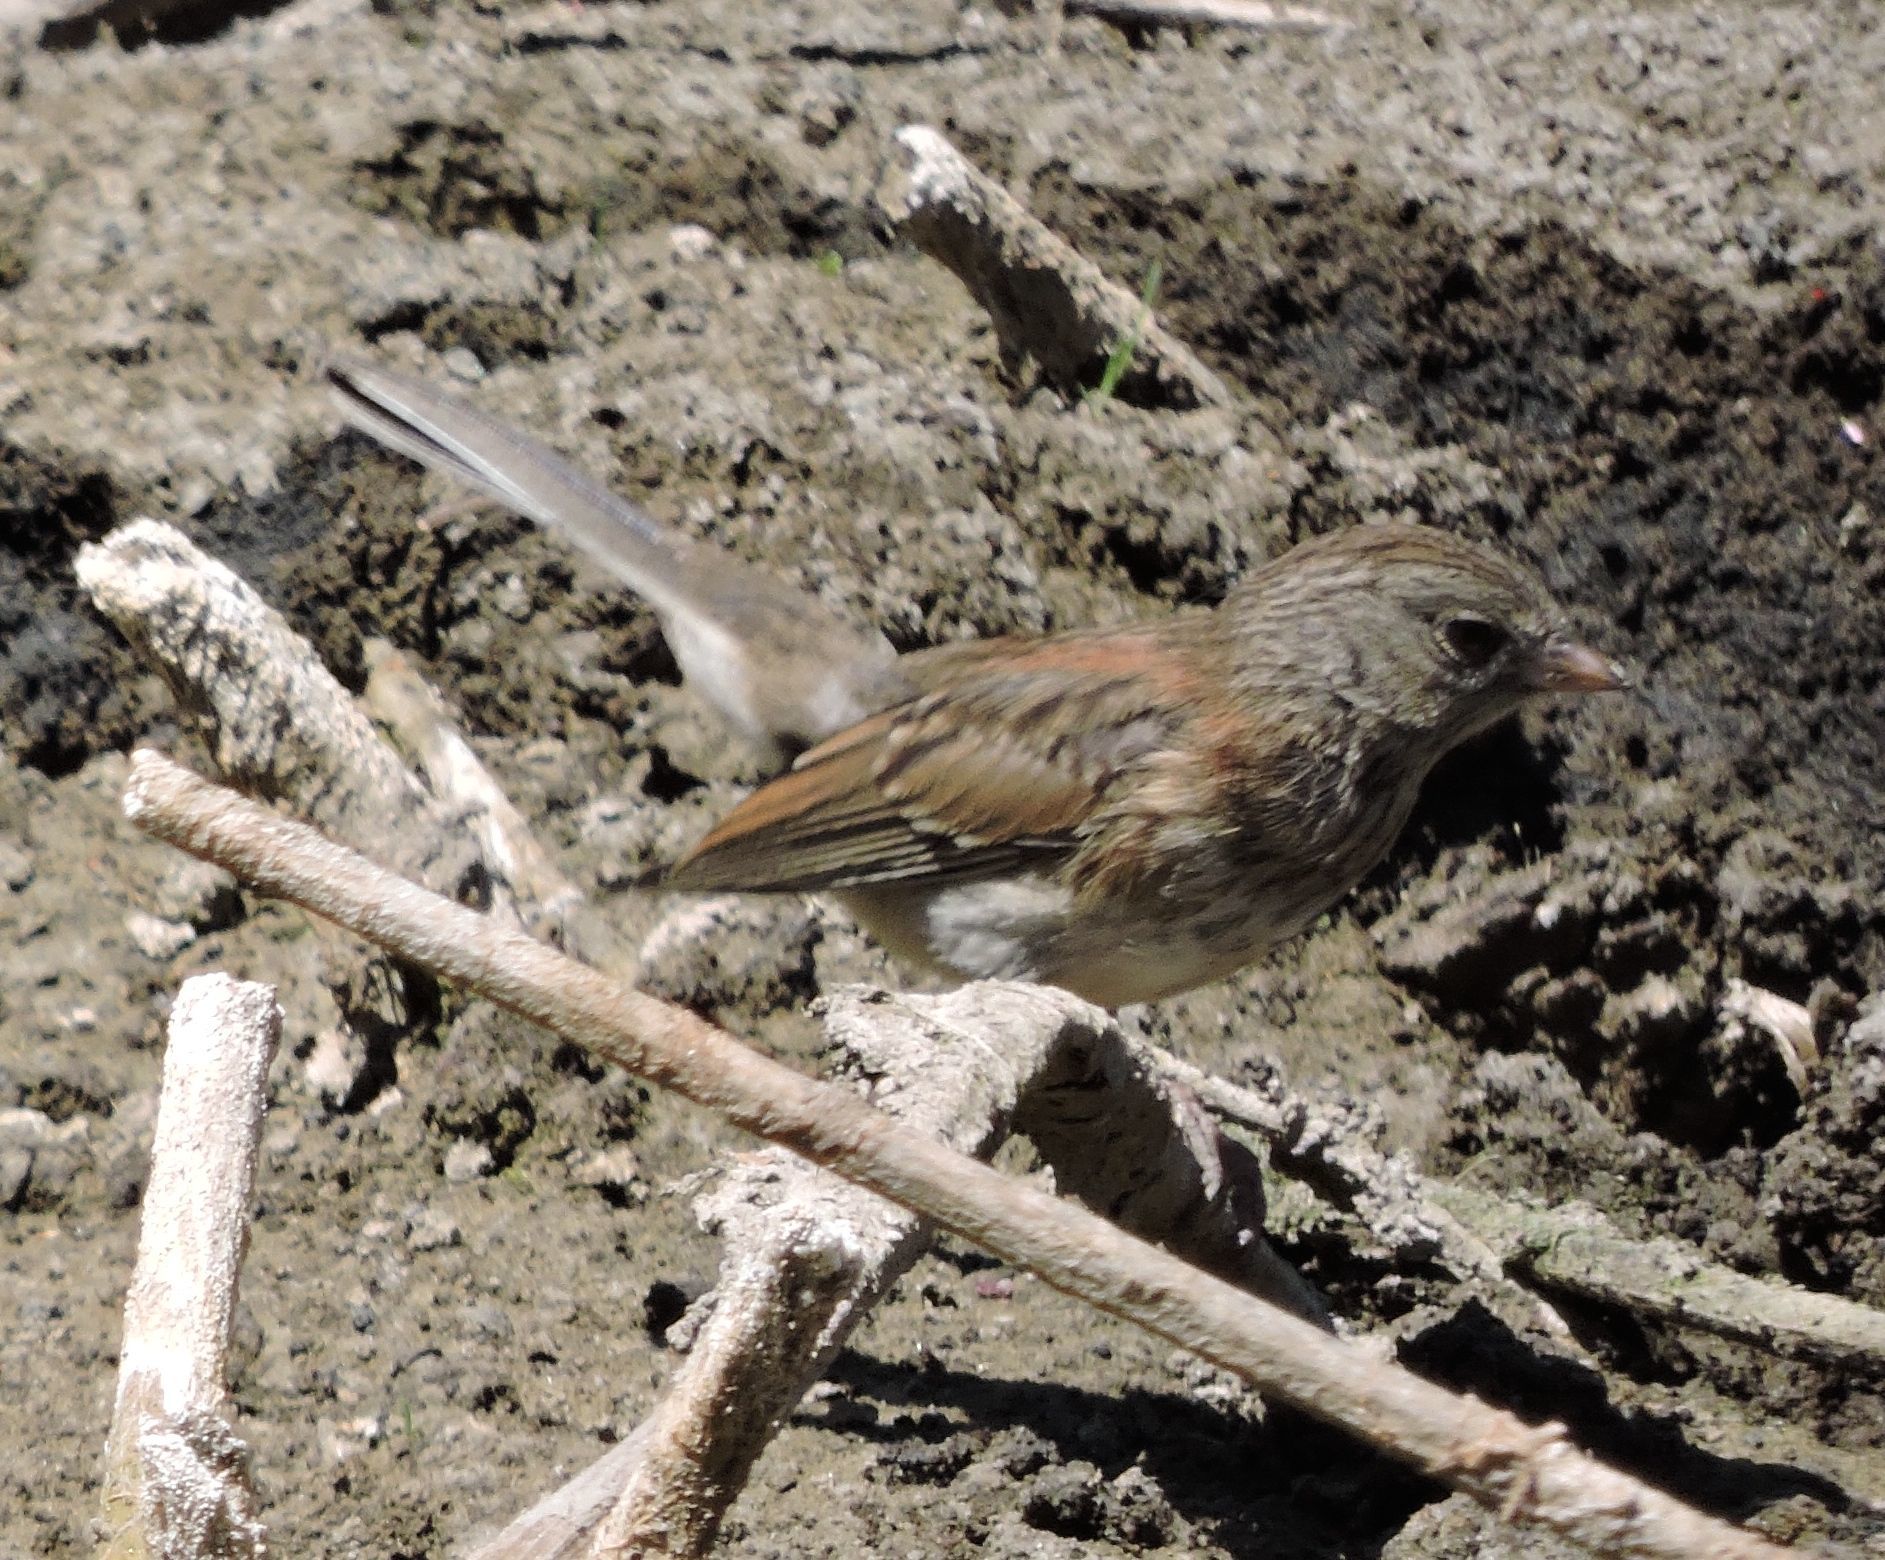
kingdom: Animalia
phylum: Chordata
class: Aves
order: Passeriformes
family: Passerellidae
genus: Junco
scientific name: Junco hyemalis
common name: Dark-eyed junco
